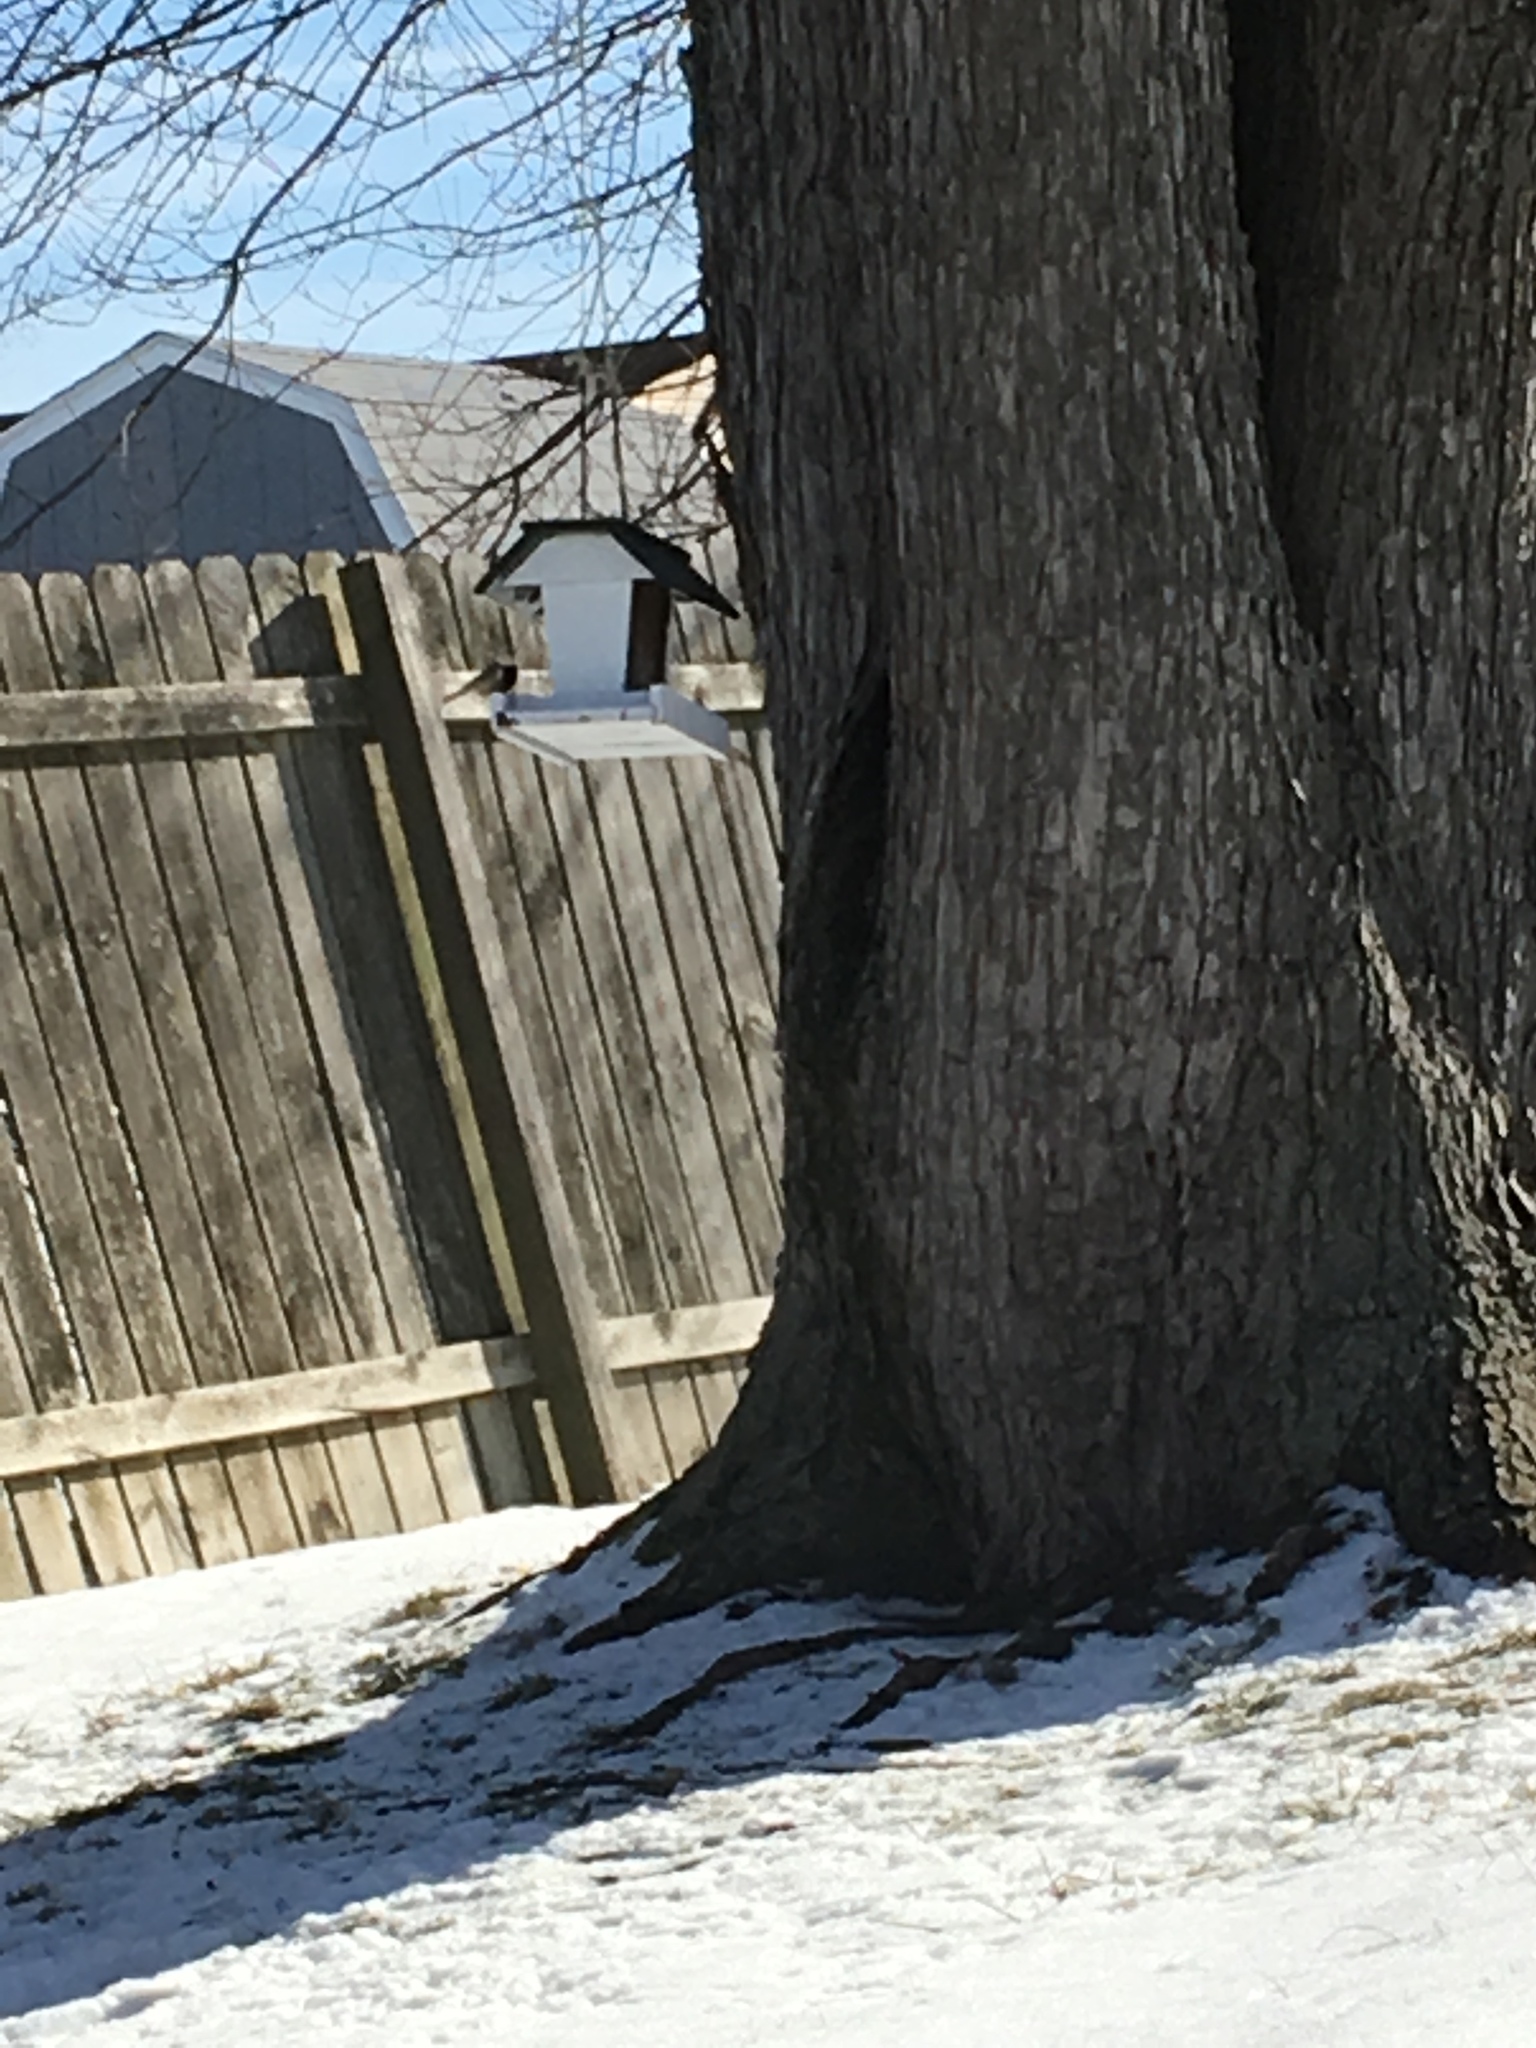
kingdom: Animalia
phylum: Chordata
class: Aves
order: Passeriformes
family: Paridae
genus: Poecile
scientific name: Poecile atricapillus
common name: Black-capped chickadee
